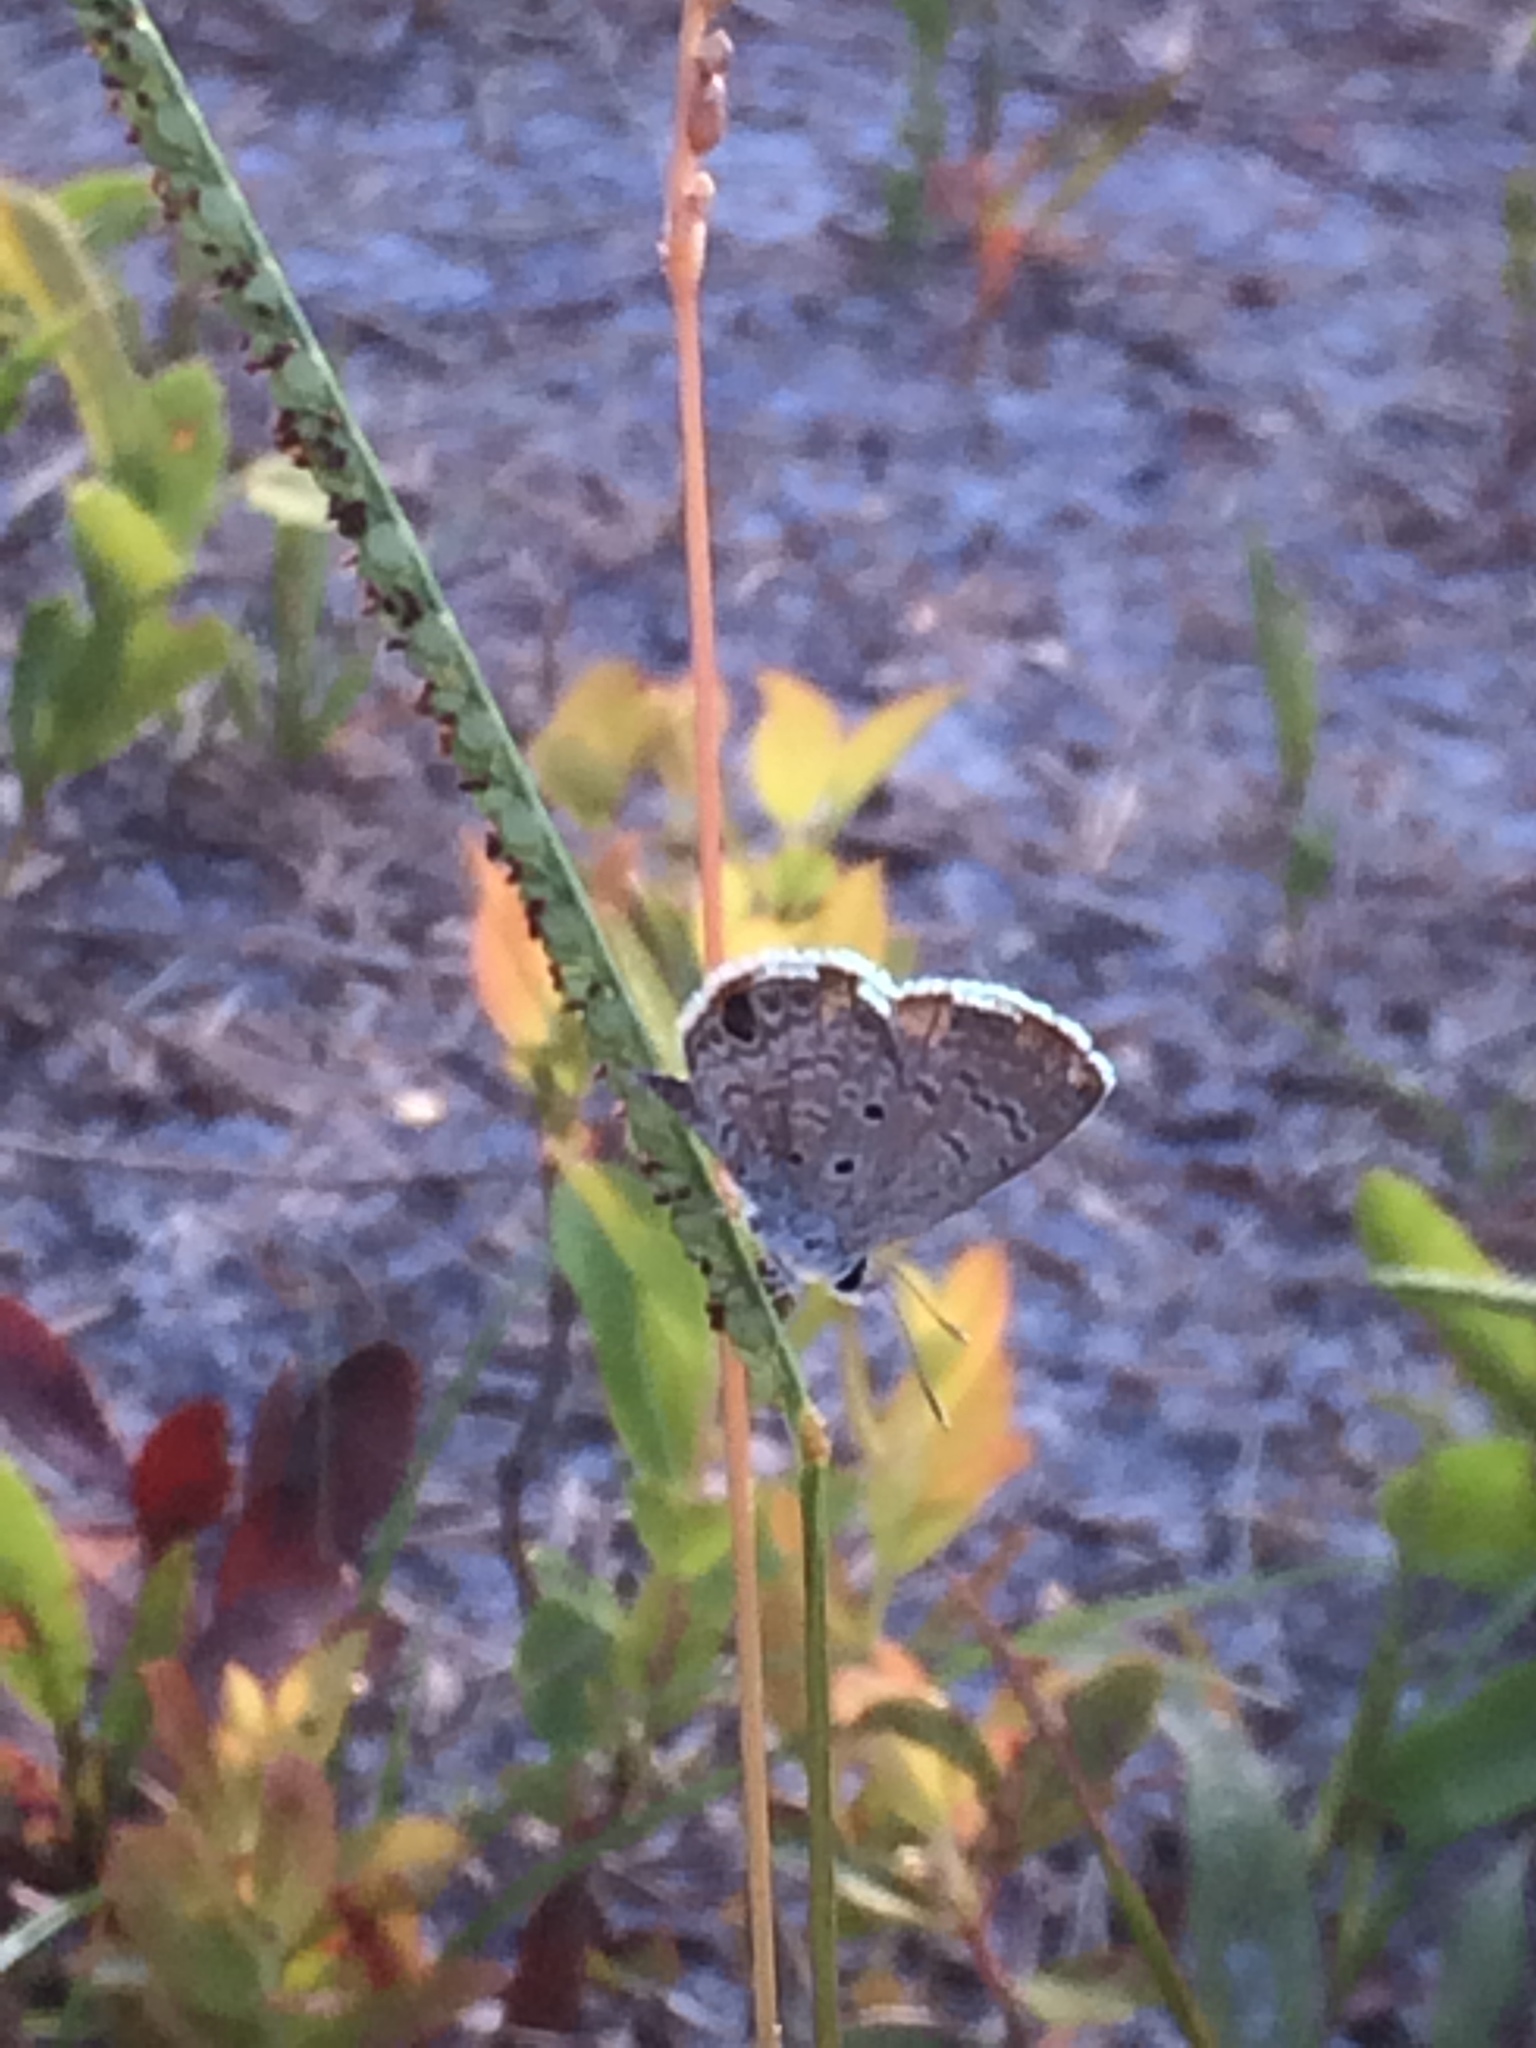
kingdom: Animalia
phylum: Arthropoda
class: Insecta
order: Lepidoptera
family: Lycaenidae
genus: Hemiargus
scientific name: Hemiargus ceraunus
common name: Ceraunus blue
